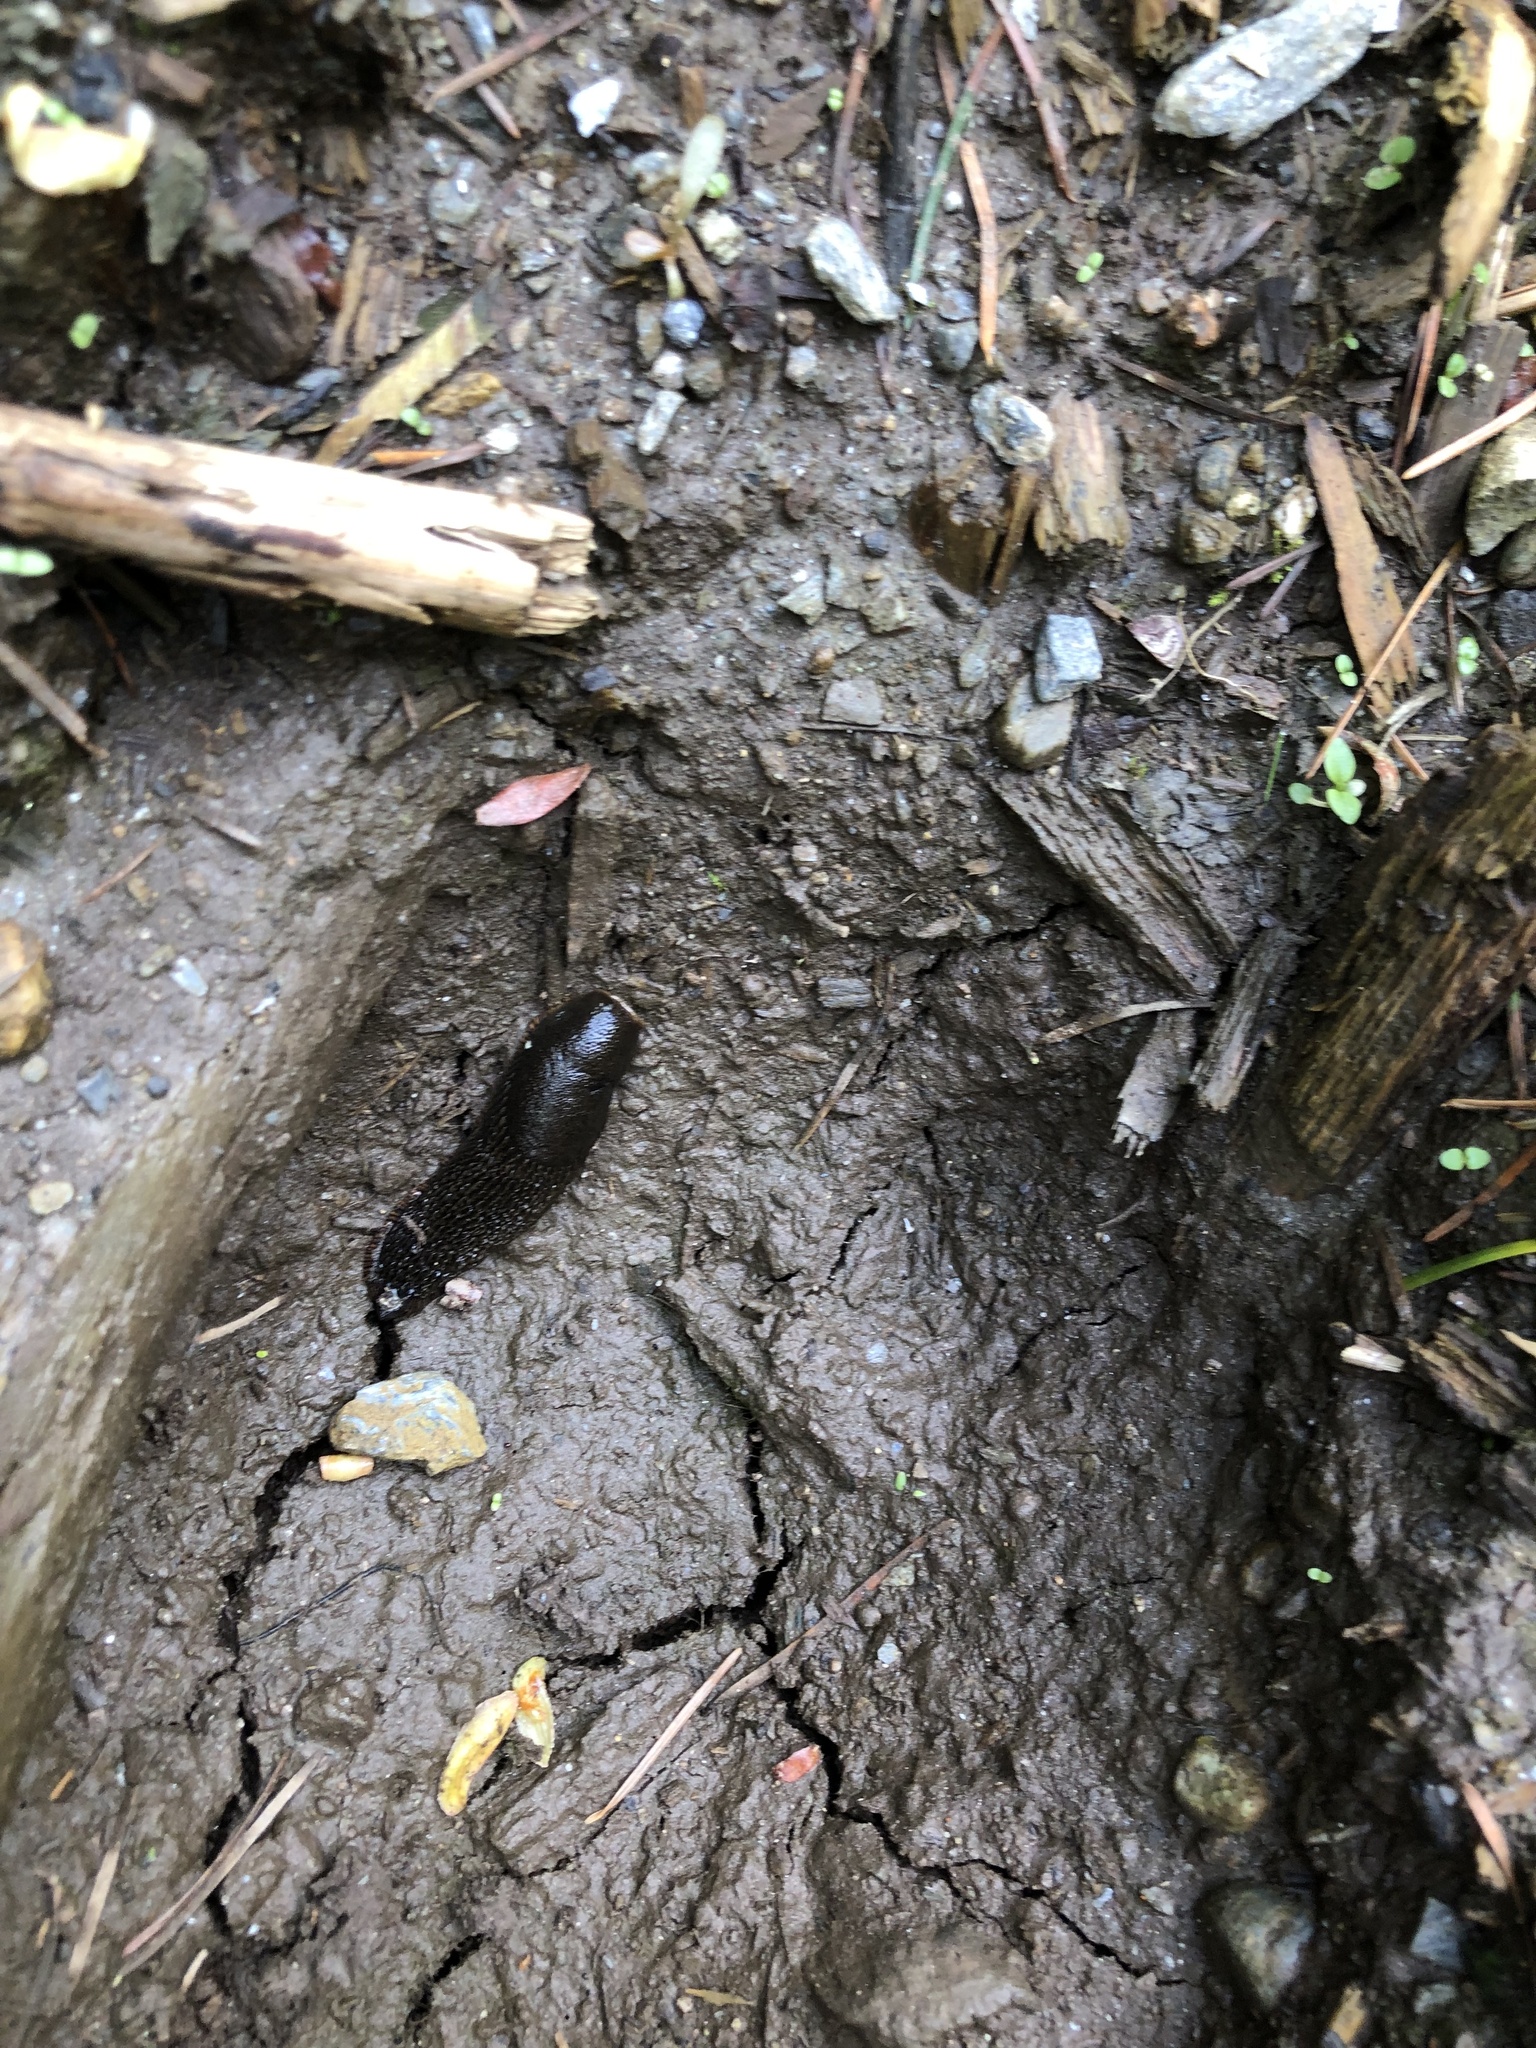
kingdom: Animalia
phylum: Mollusca
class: Gastropoda
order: Stylommatophora
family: Arionidae
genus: Arion
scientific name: Arion
